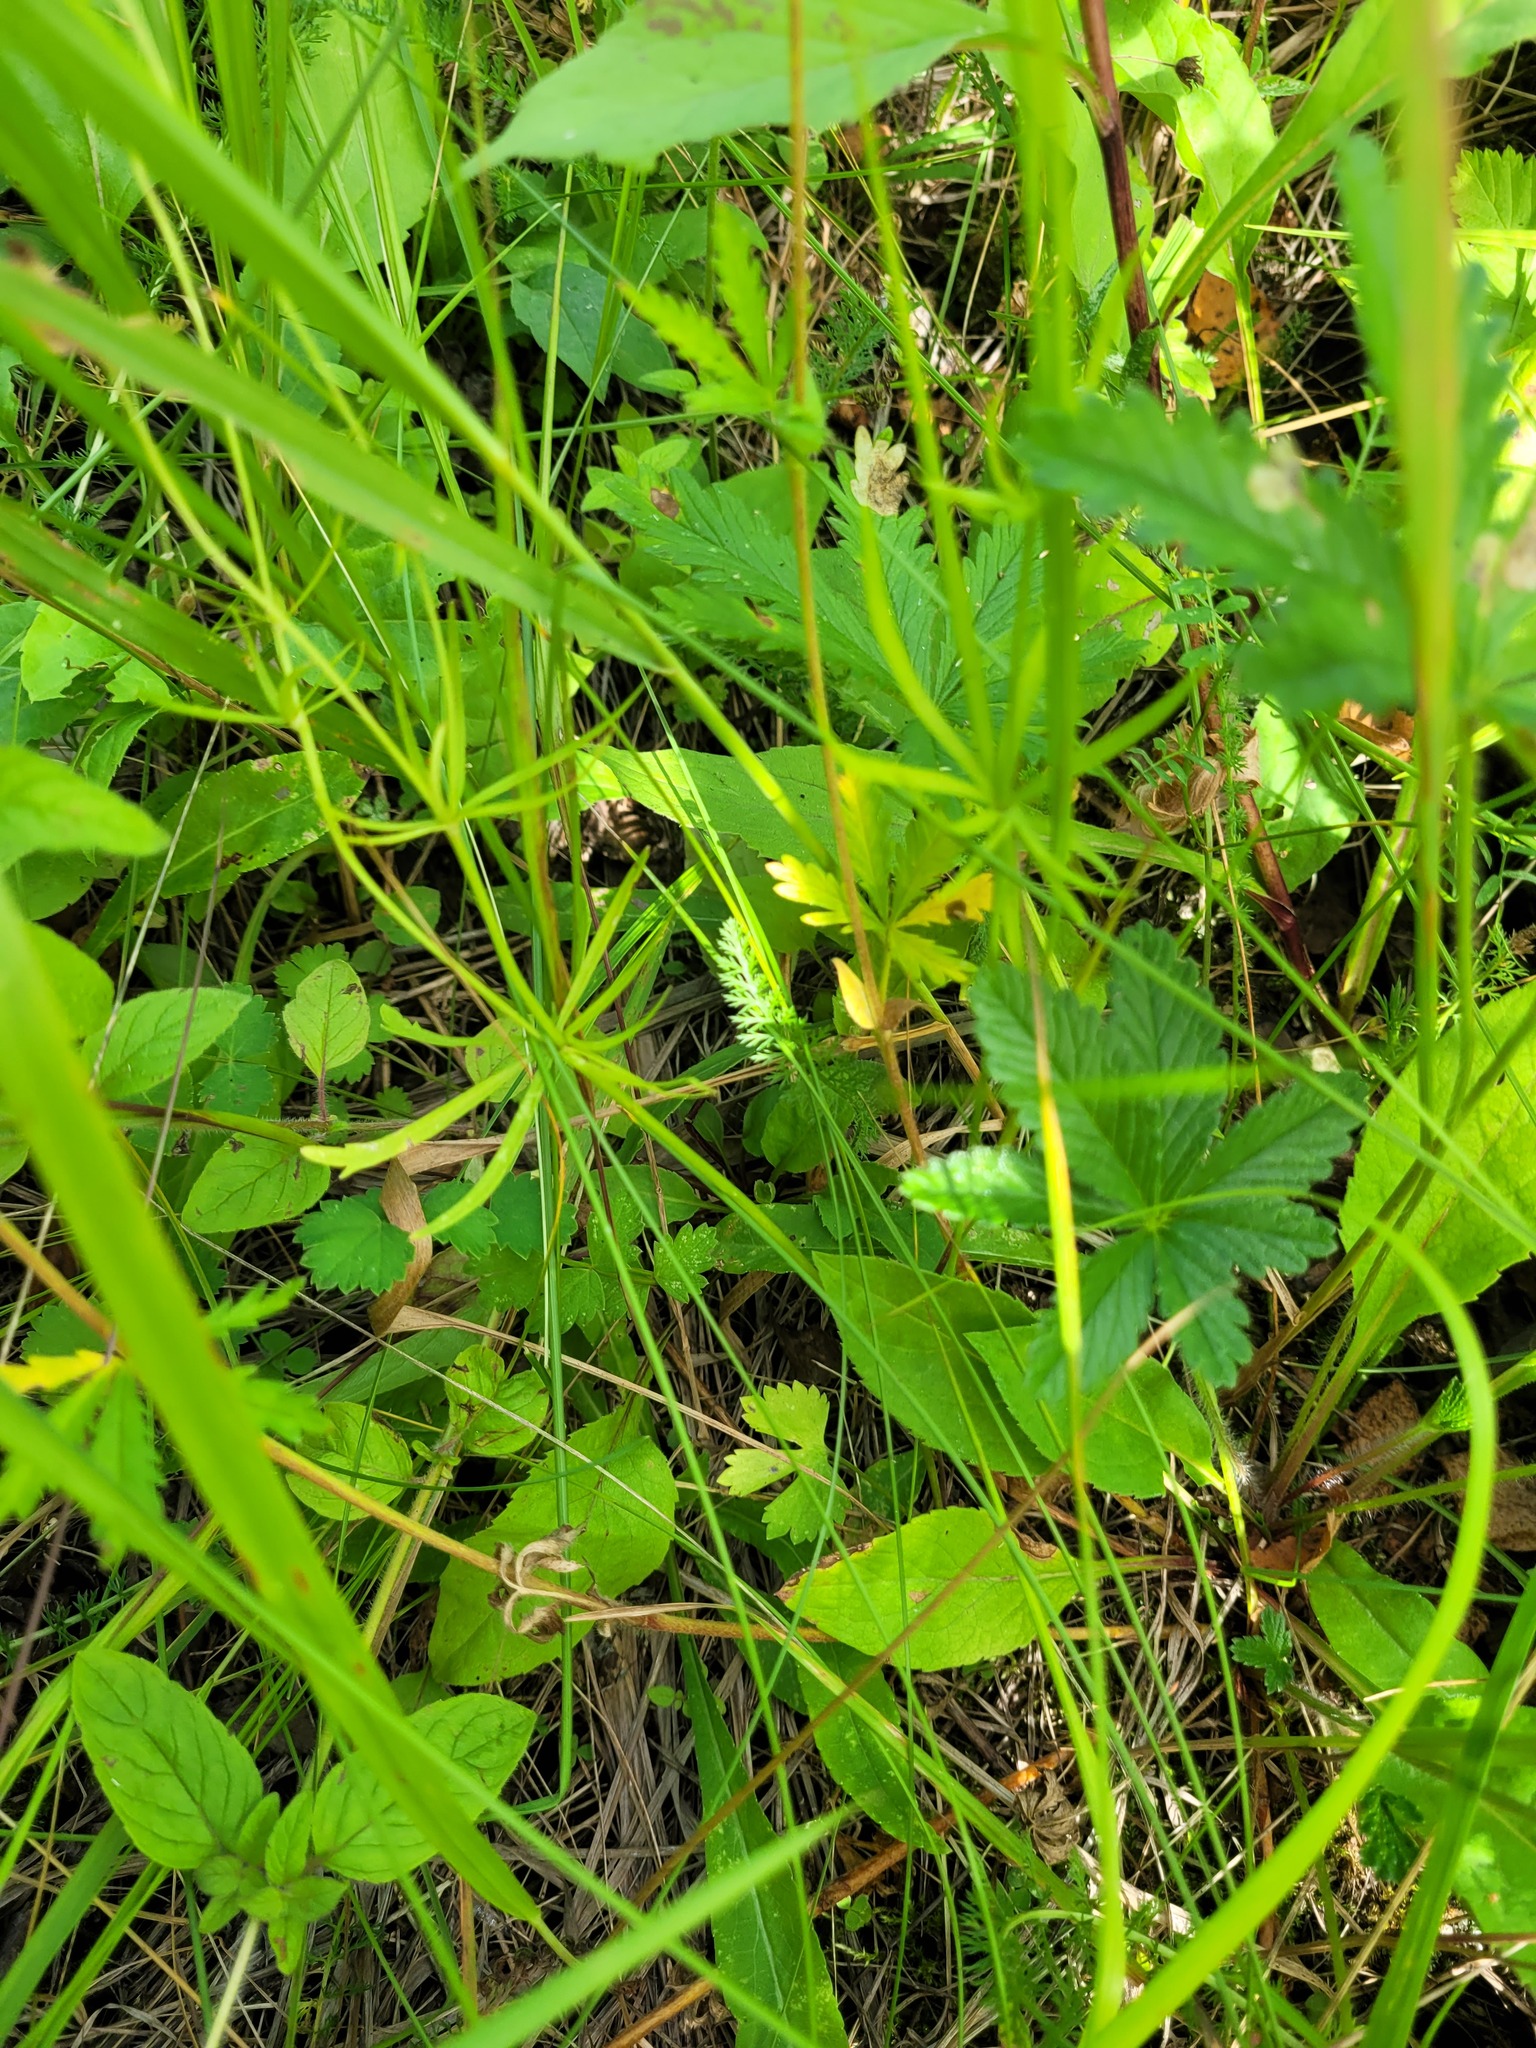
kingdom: Plantae
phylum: Tracheophyta
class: Magnoliopsida
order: Ranunculales
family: Ranunculaceae
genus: Ranunculus
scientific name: Ranunculus auricomus
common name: Goldilocks buttercup
